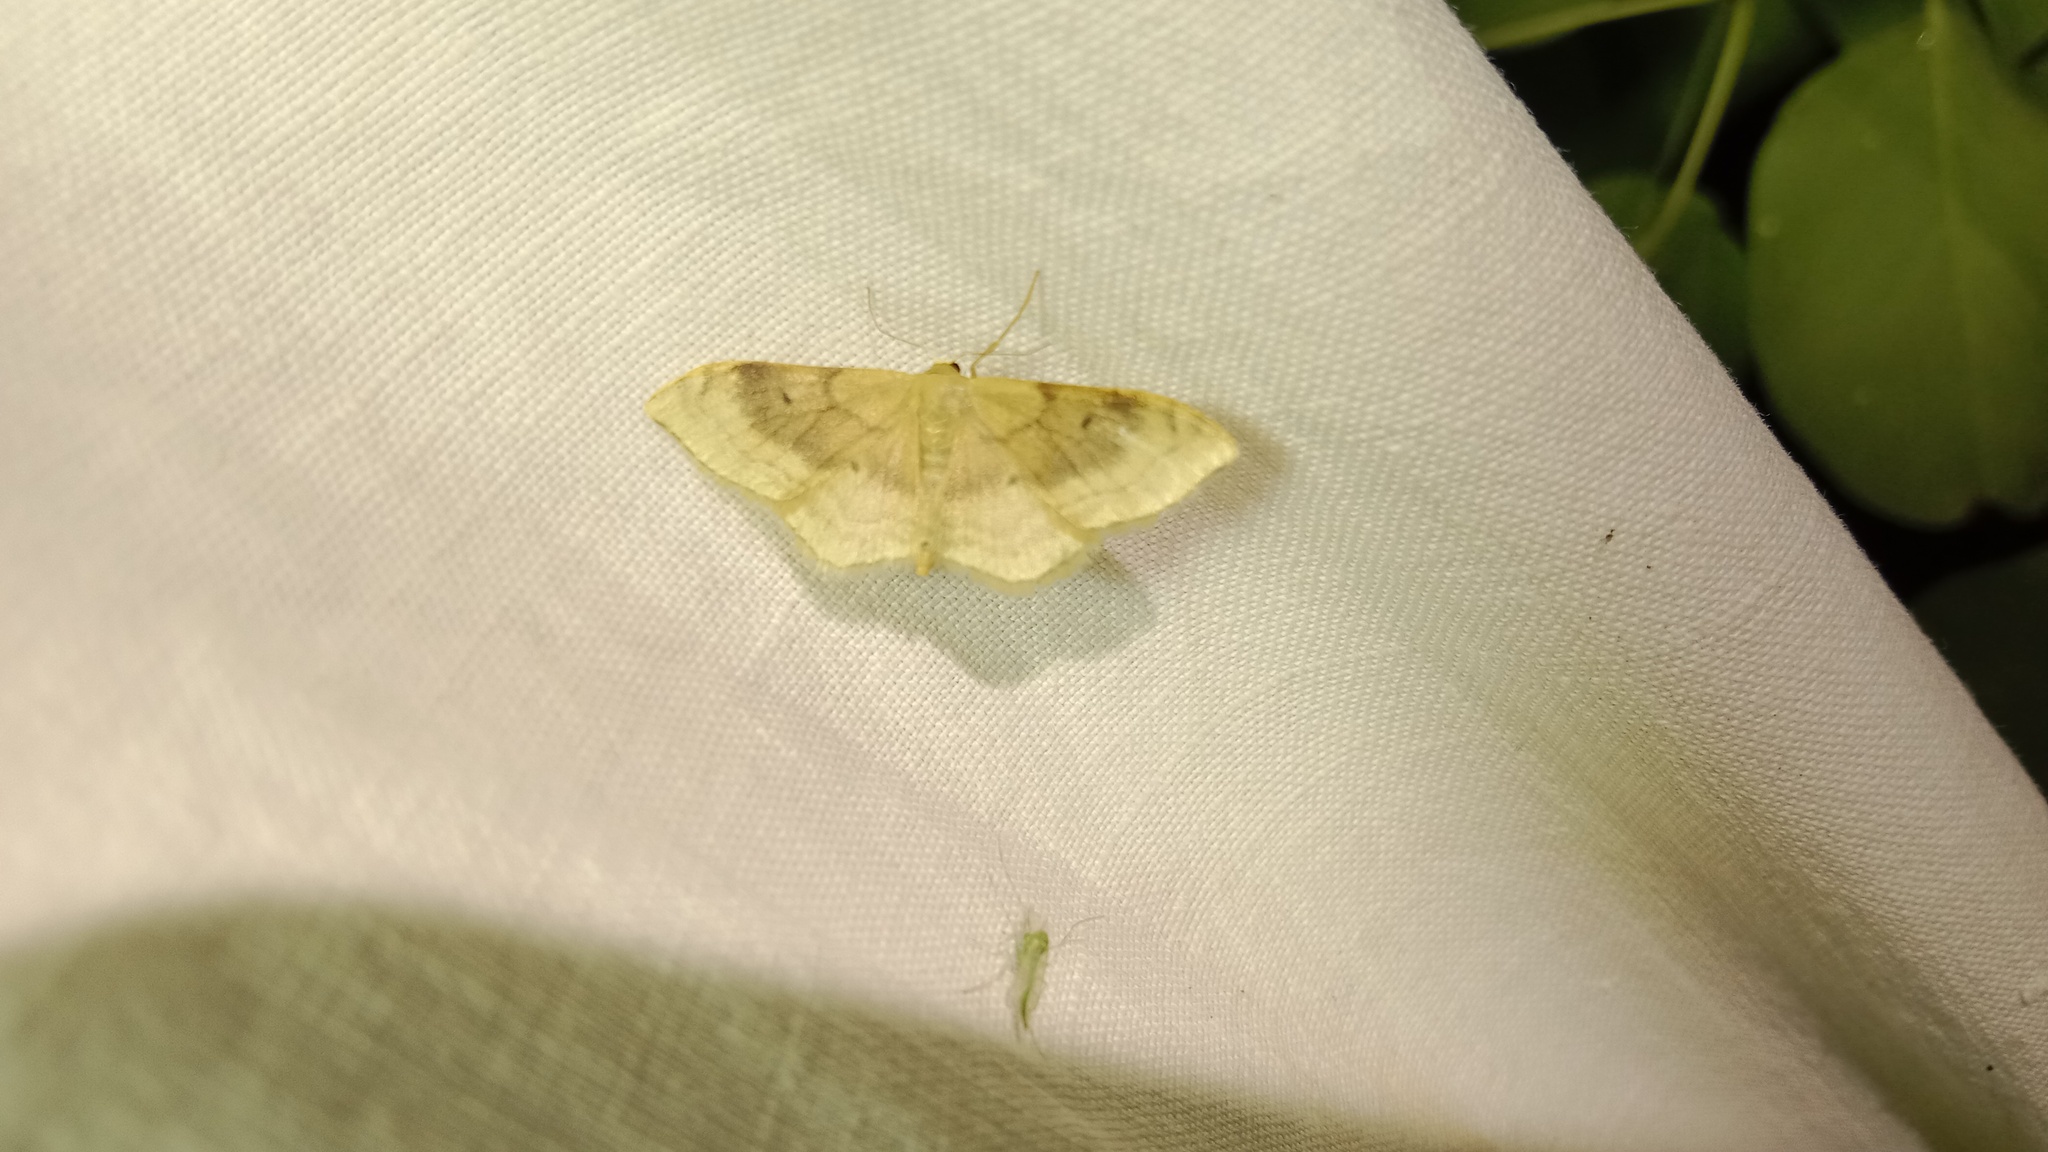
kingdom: Animalia
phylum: Arthropoda
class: Insecta
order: Lepidoptera
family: Geometridae
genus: Idaea
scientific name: Idaea degeneraria
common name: Portland ribbon wave
